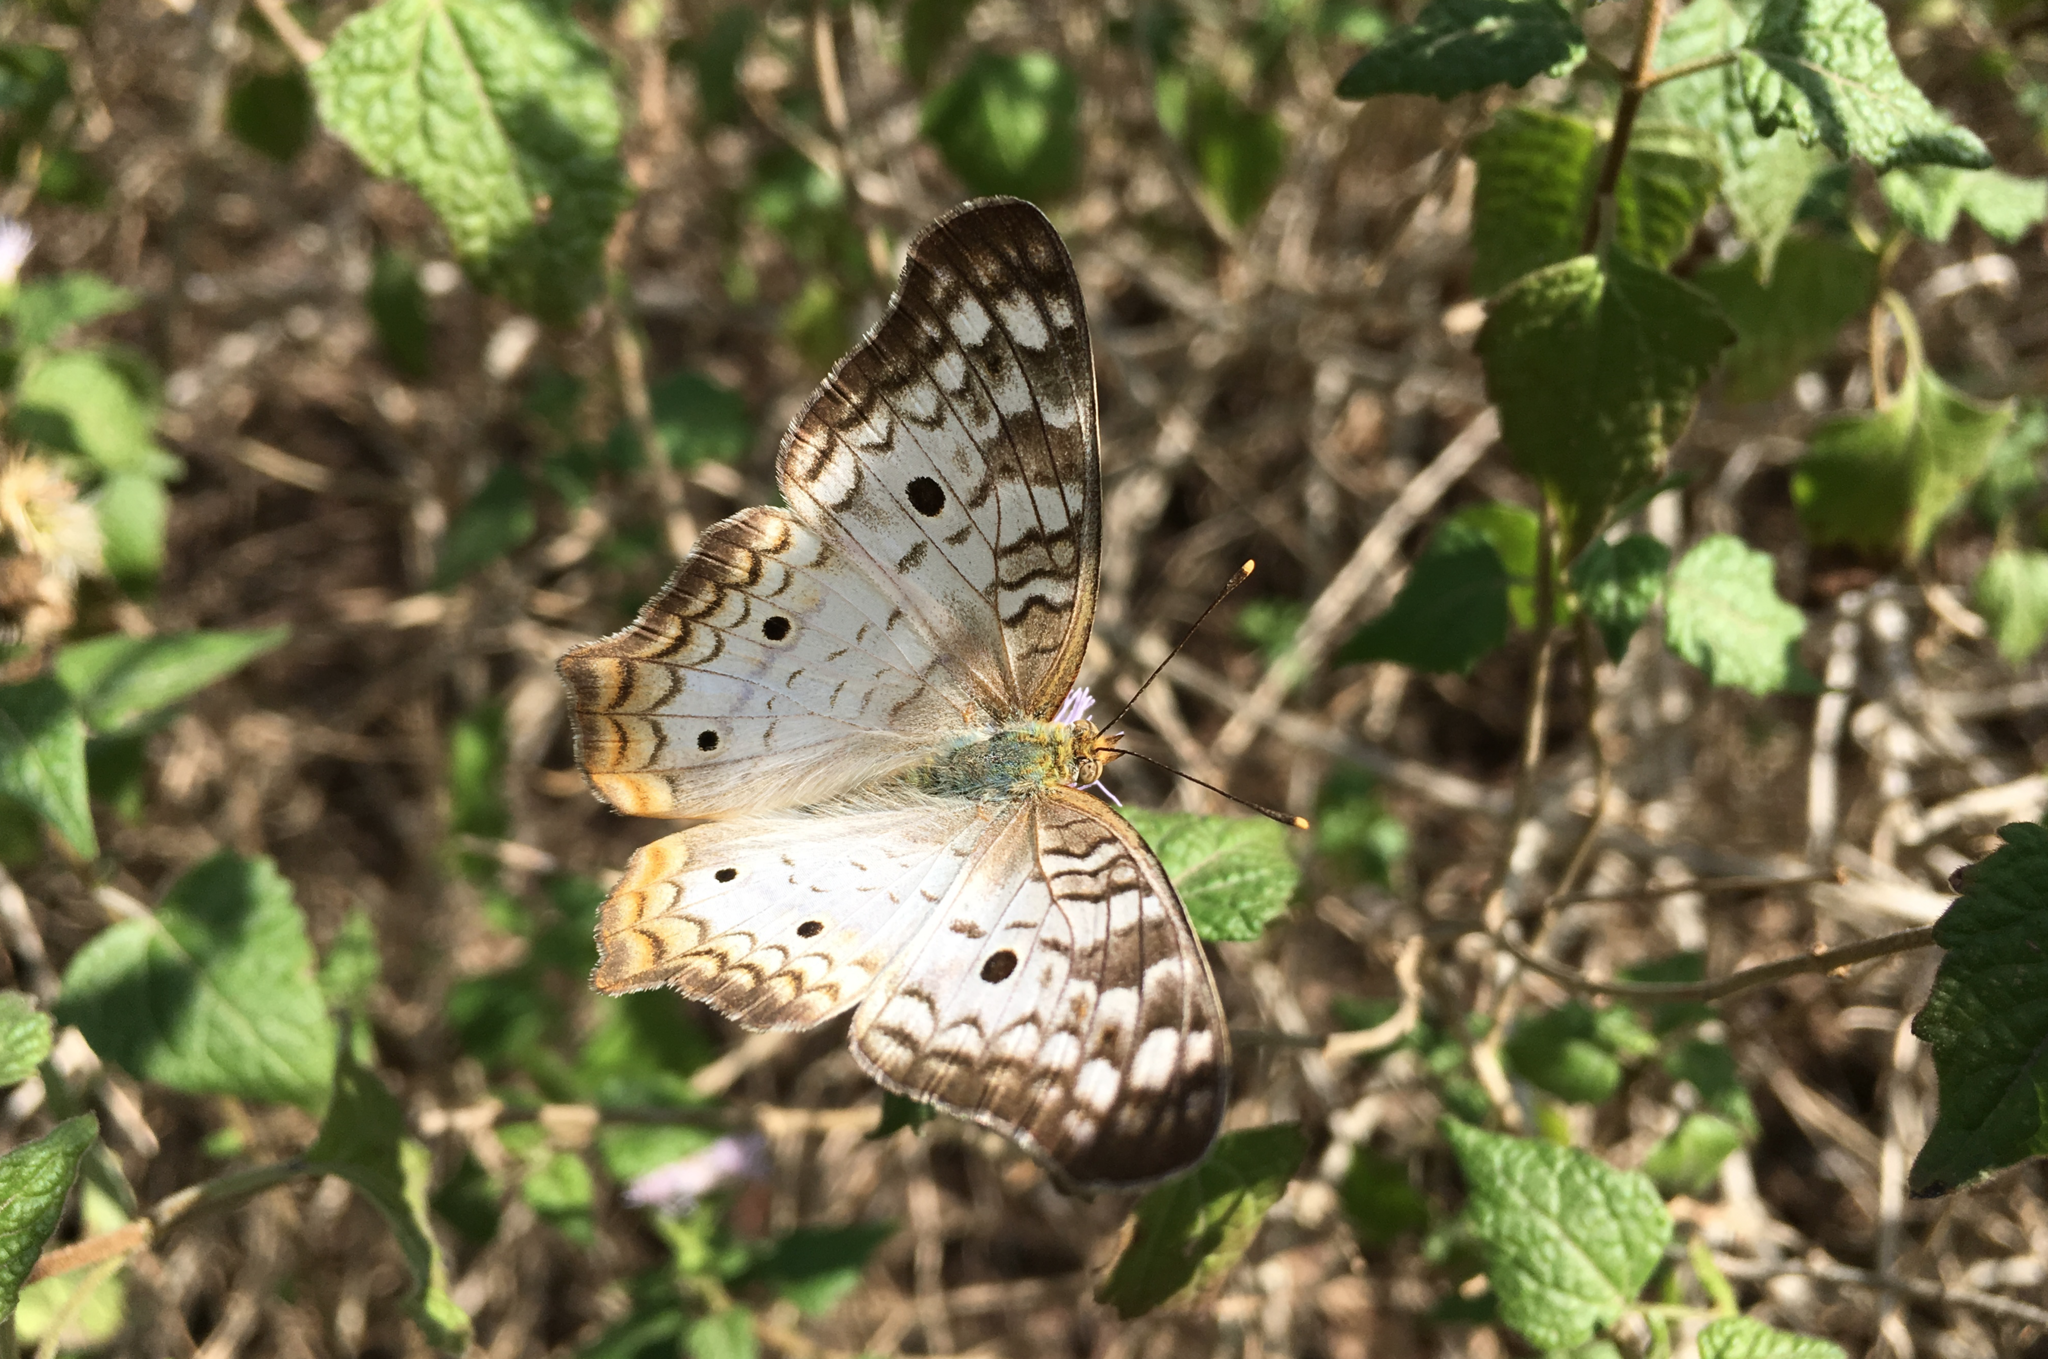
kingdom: Animalia
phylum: Arthropoda
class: Insecta
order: Lepidoptera
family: Nymphalidae
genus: Anartia
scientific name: Anartia jatrophae
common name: White peacock
